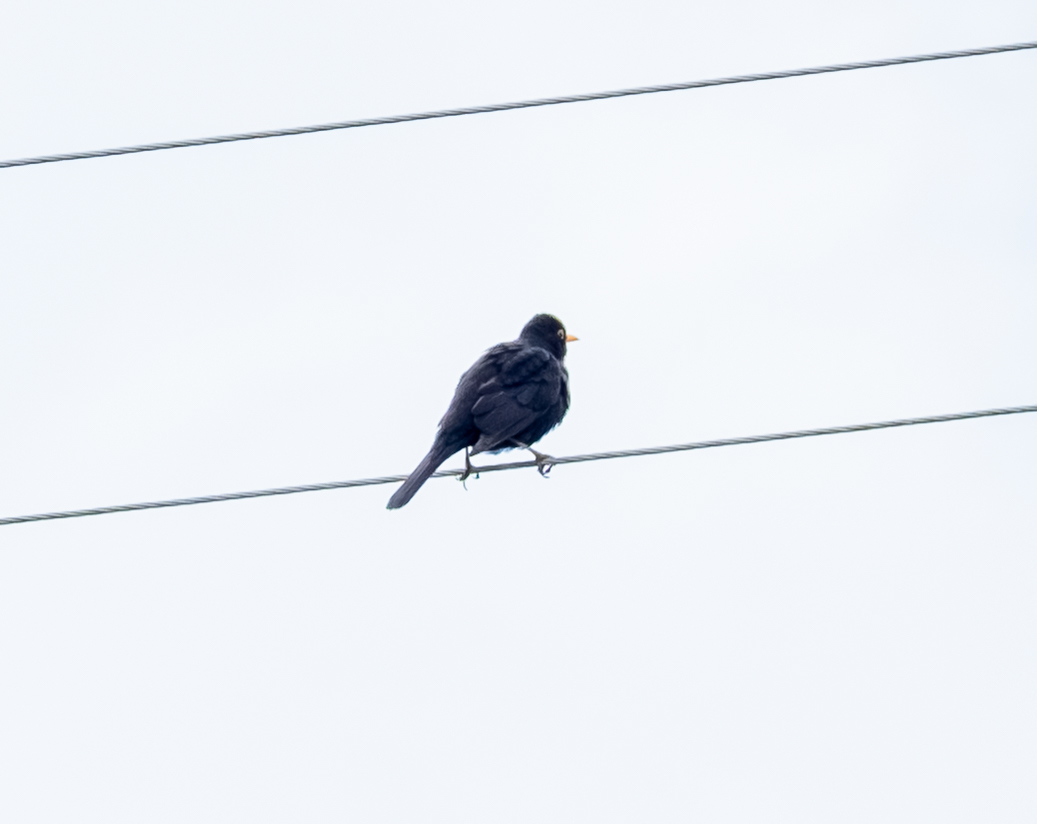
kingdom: Animalia
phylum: Chordata
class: Aves
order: Passeriformes
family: Turdidae
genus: Turdus
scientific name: Turdus merula
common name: Common blackbird
